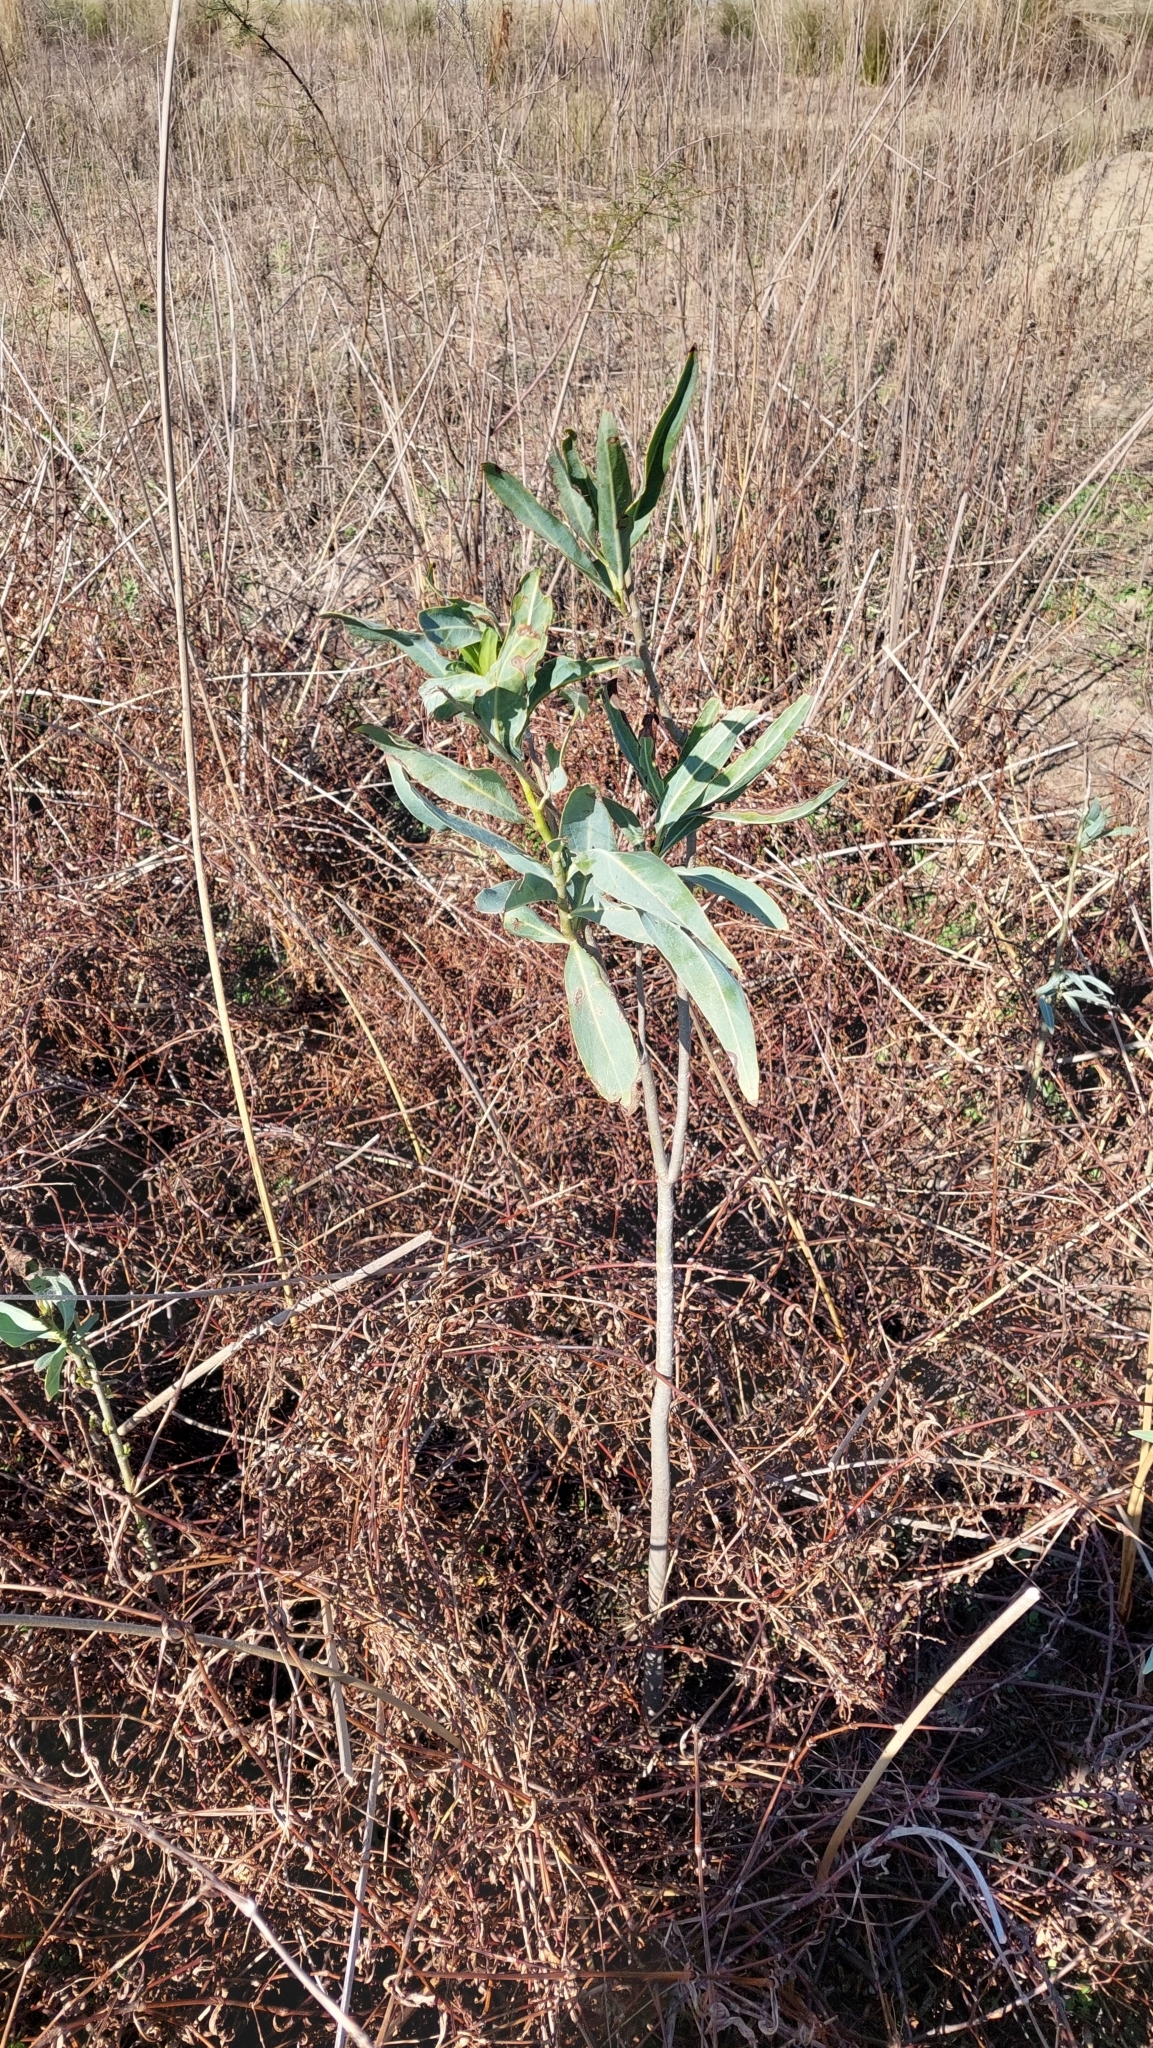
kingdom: Plantae
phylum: Tracheophyta
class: Magnoliopsida
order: Solanales
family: Solanaceae
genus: Solanum
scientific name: Solanum glaucophyllum
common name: Waxyleaf nightshade
